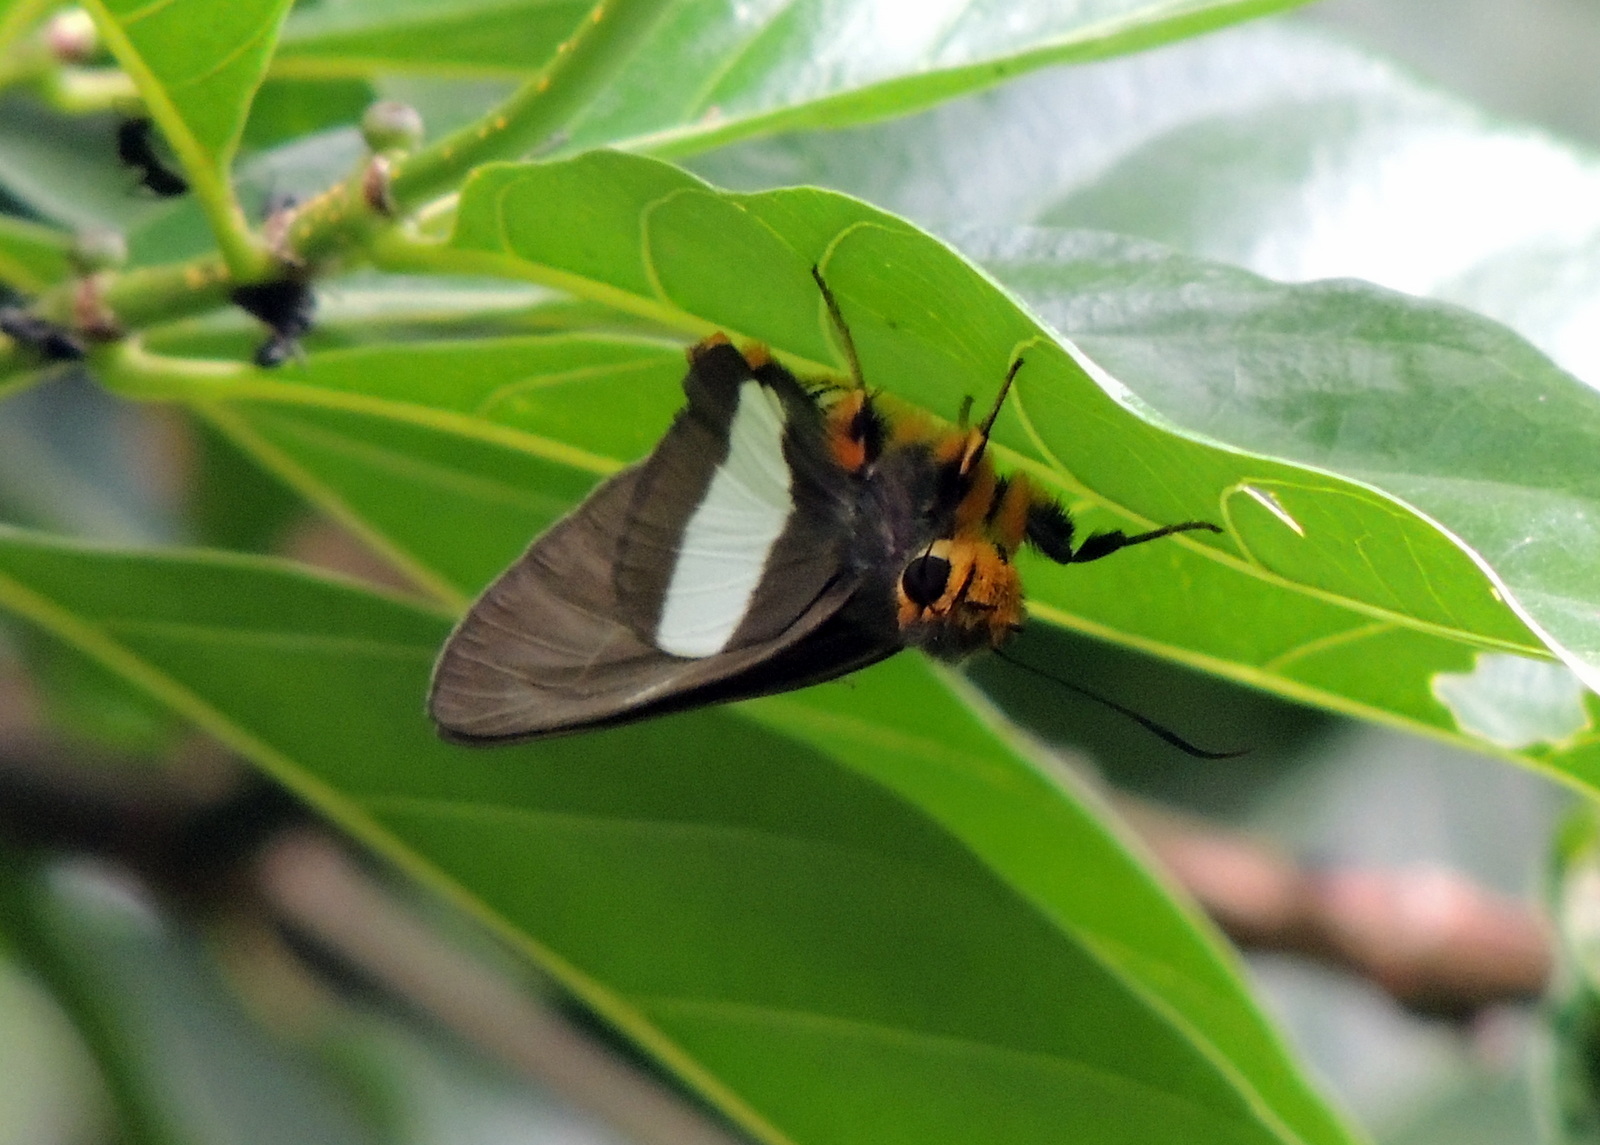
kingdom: Animalia
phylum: Arthropoda
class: Insecta
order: Lepidoptera
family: Hesperiidae
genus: Coeliades
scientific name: Coeliades forestan
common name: Striped policeman
